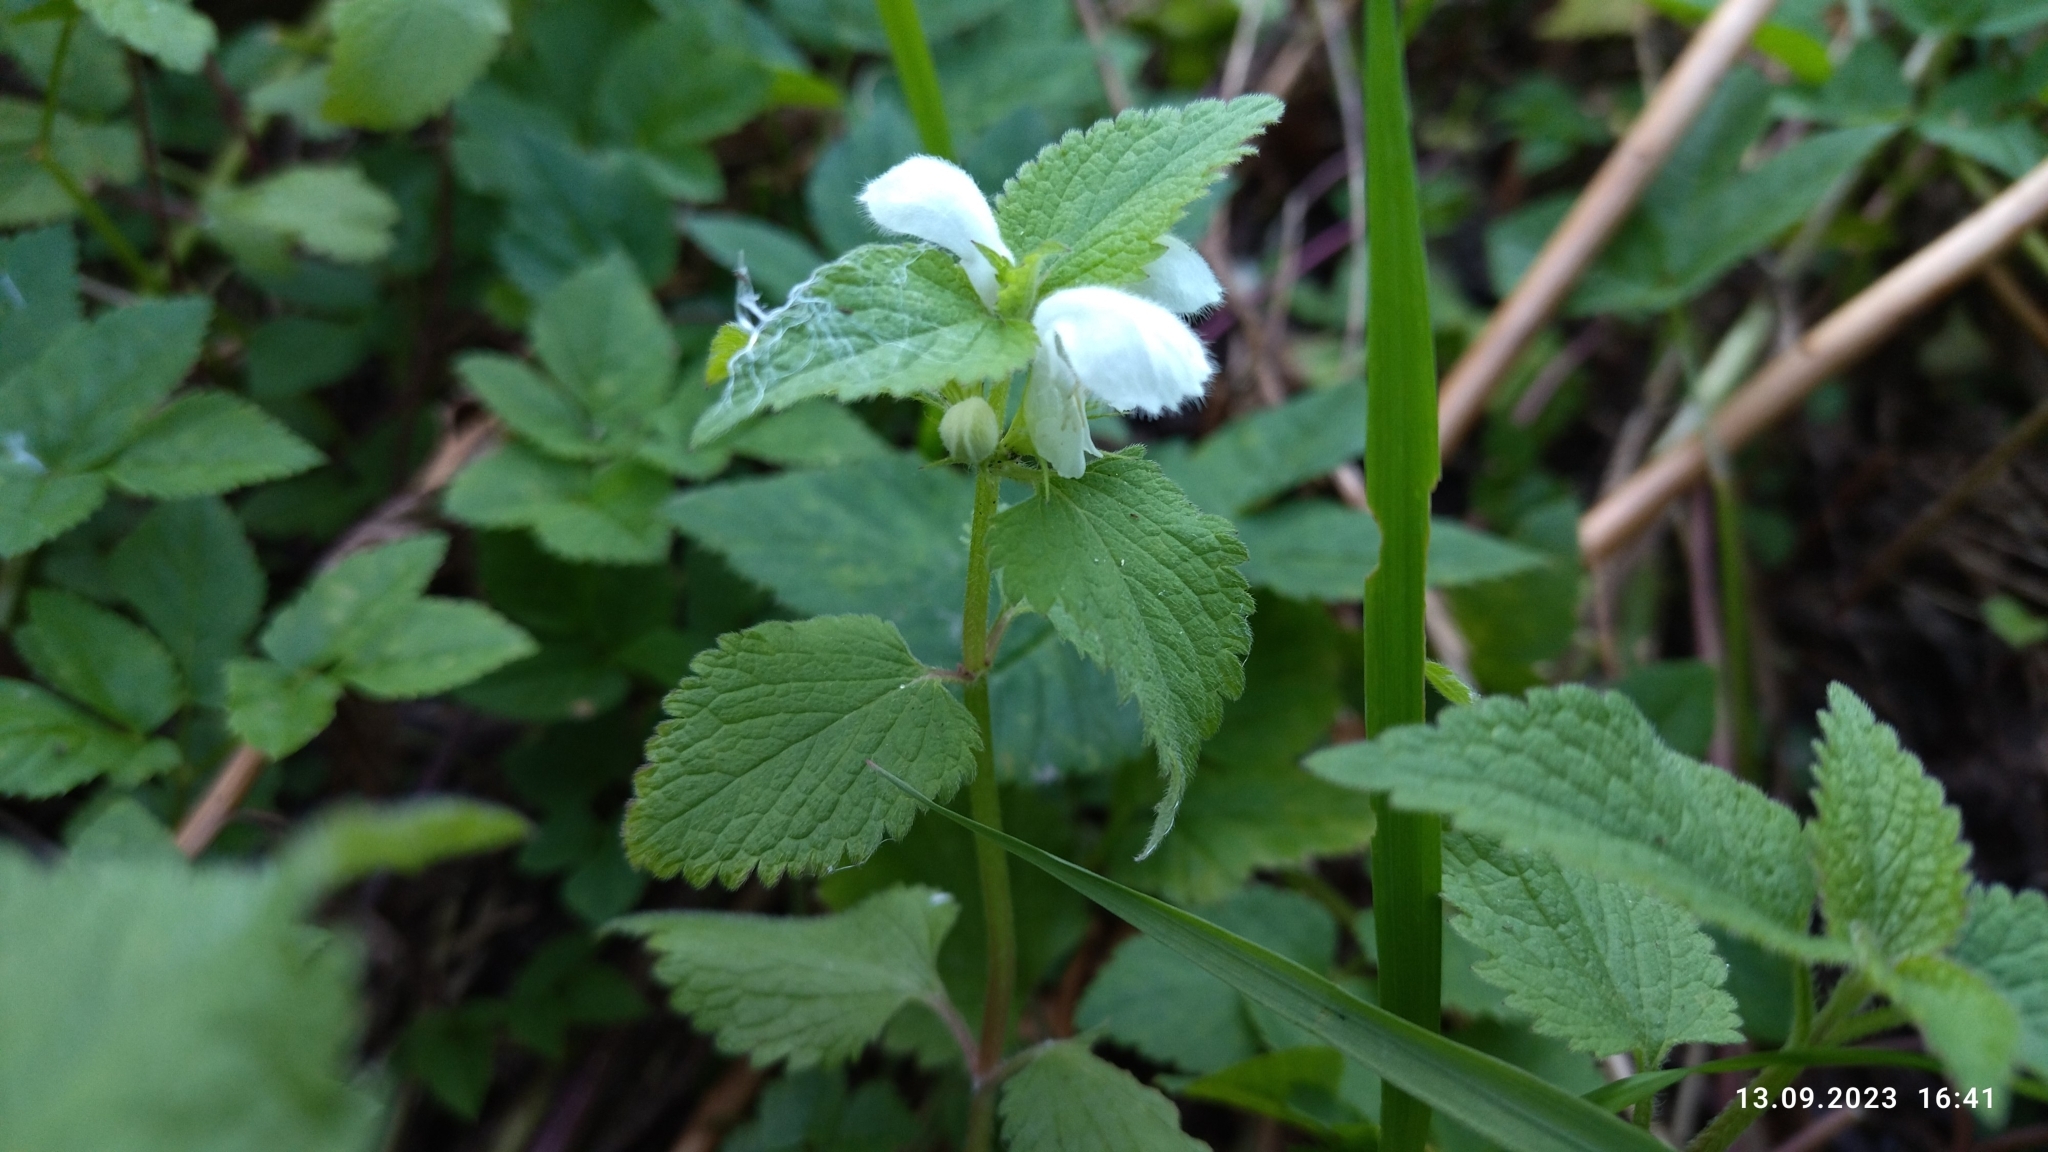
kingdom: Plantae
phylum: Tracheophyta
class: Magnoliopsida
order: Lamiales
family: Lamiaceae
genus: Lamium
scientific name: Lamium album
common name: White dead-nettle
